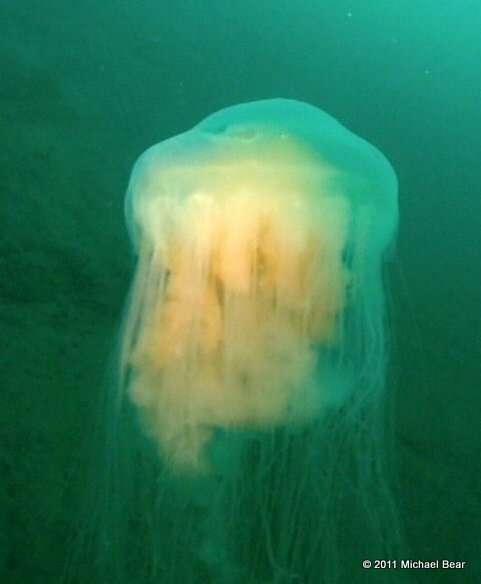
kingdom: Animalia
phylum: Cnidaria
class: Scyphozoa
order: Semaeostomeae
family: Phacellophoridae
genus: Phacellophora
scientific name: Phacellophora camtschatica
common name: Fried-egg jellyfish
